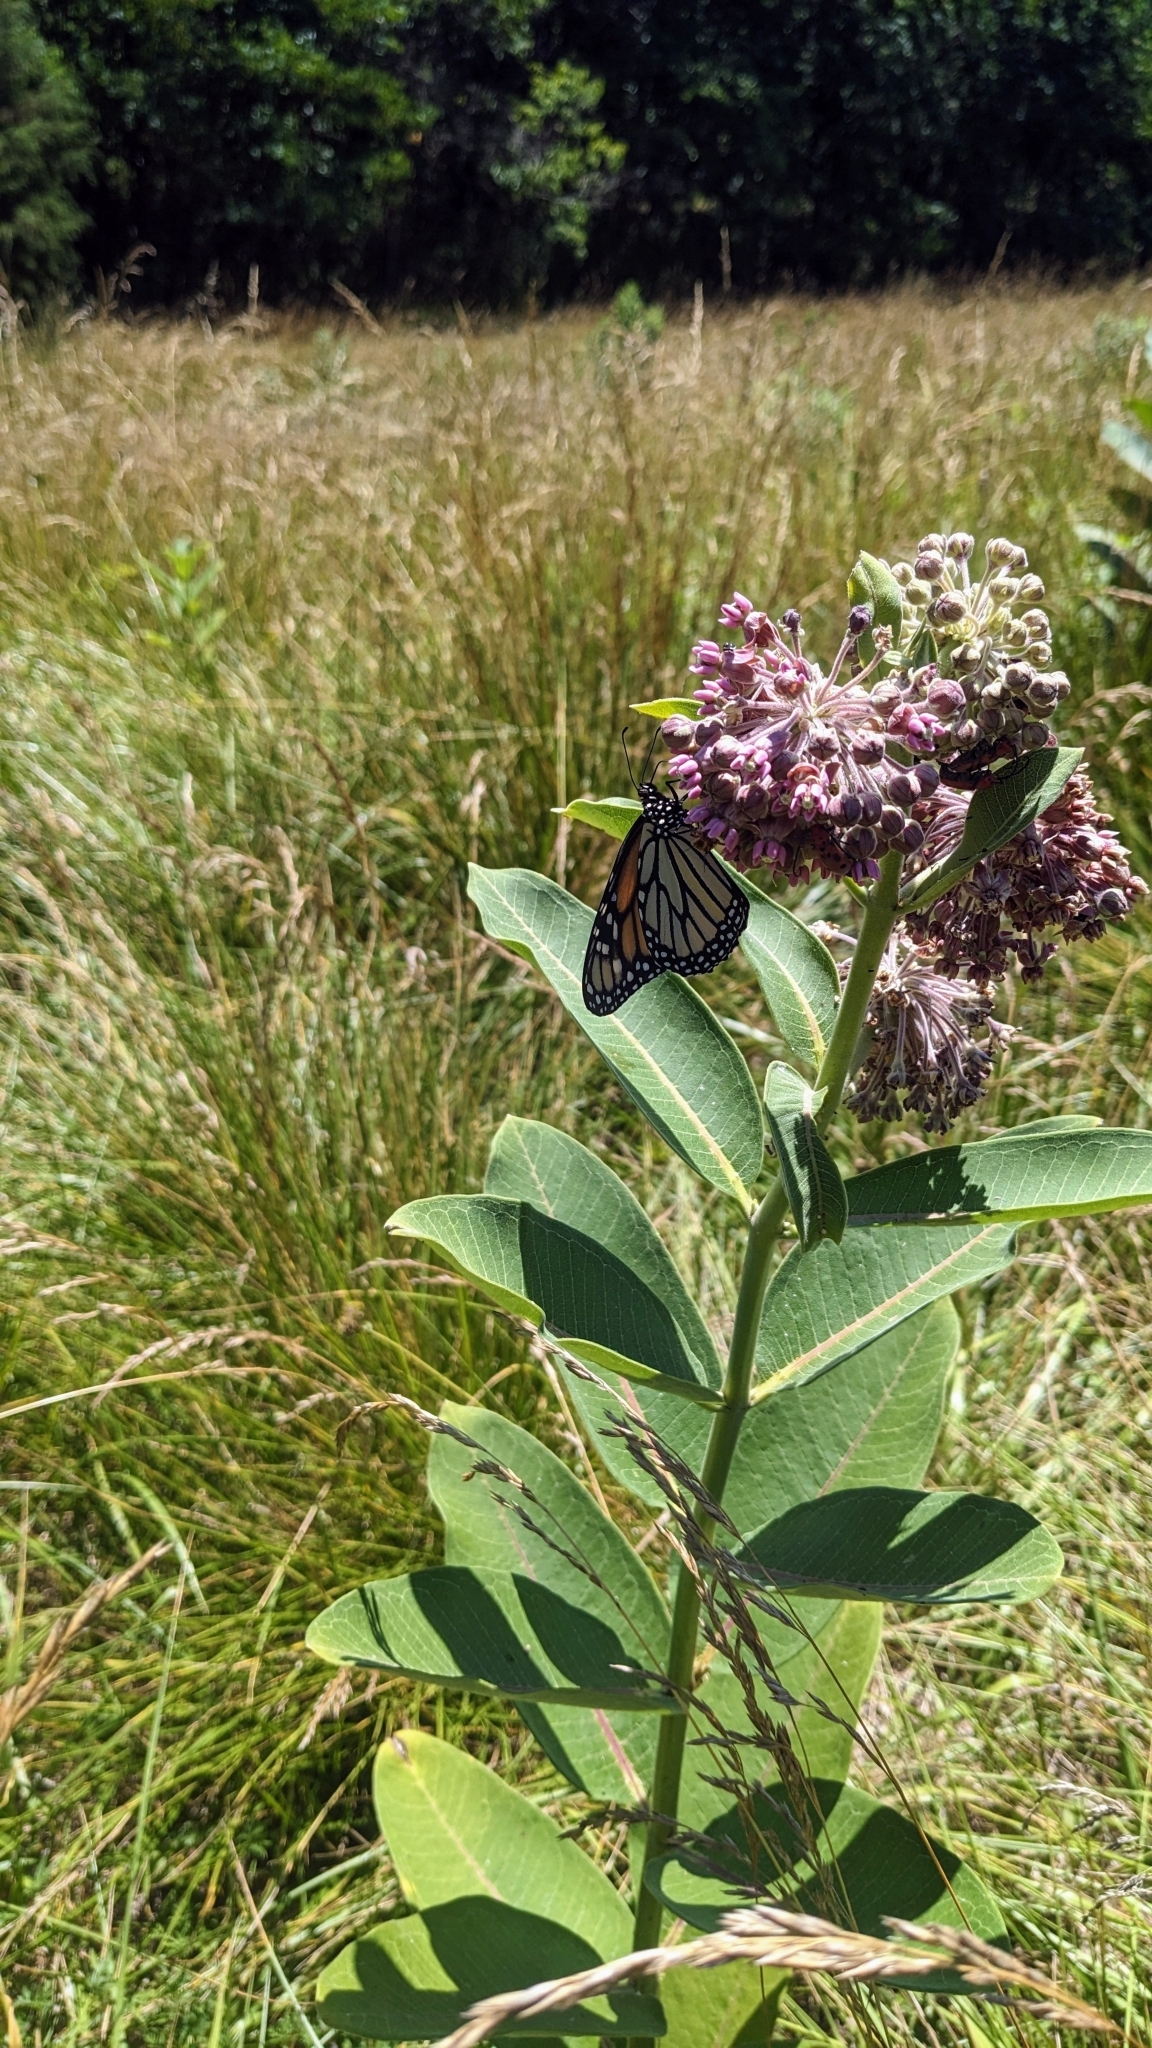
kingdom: Animalia
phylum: Arthropoda
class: Insecta
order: Lepidoptera
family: Nymphalidae
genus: Danaus
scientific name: Danaus plexippus
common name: Monarch
